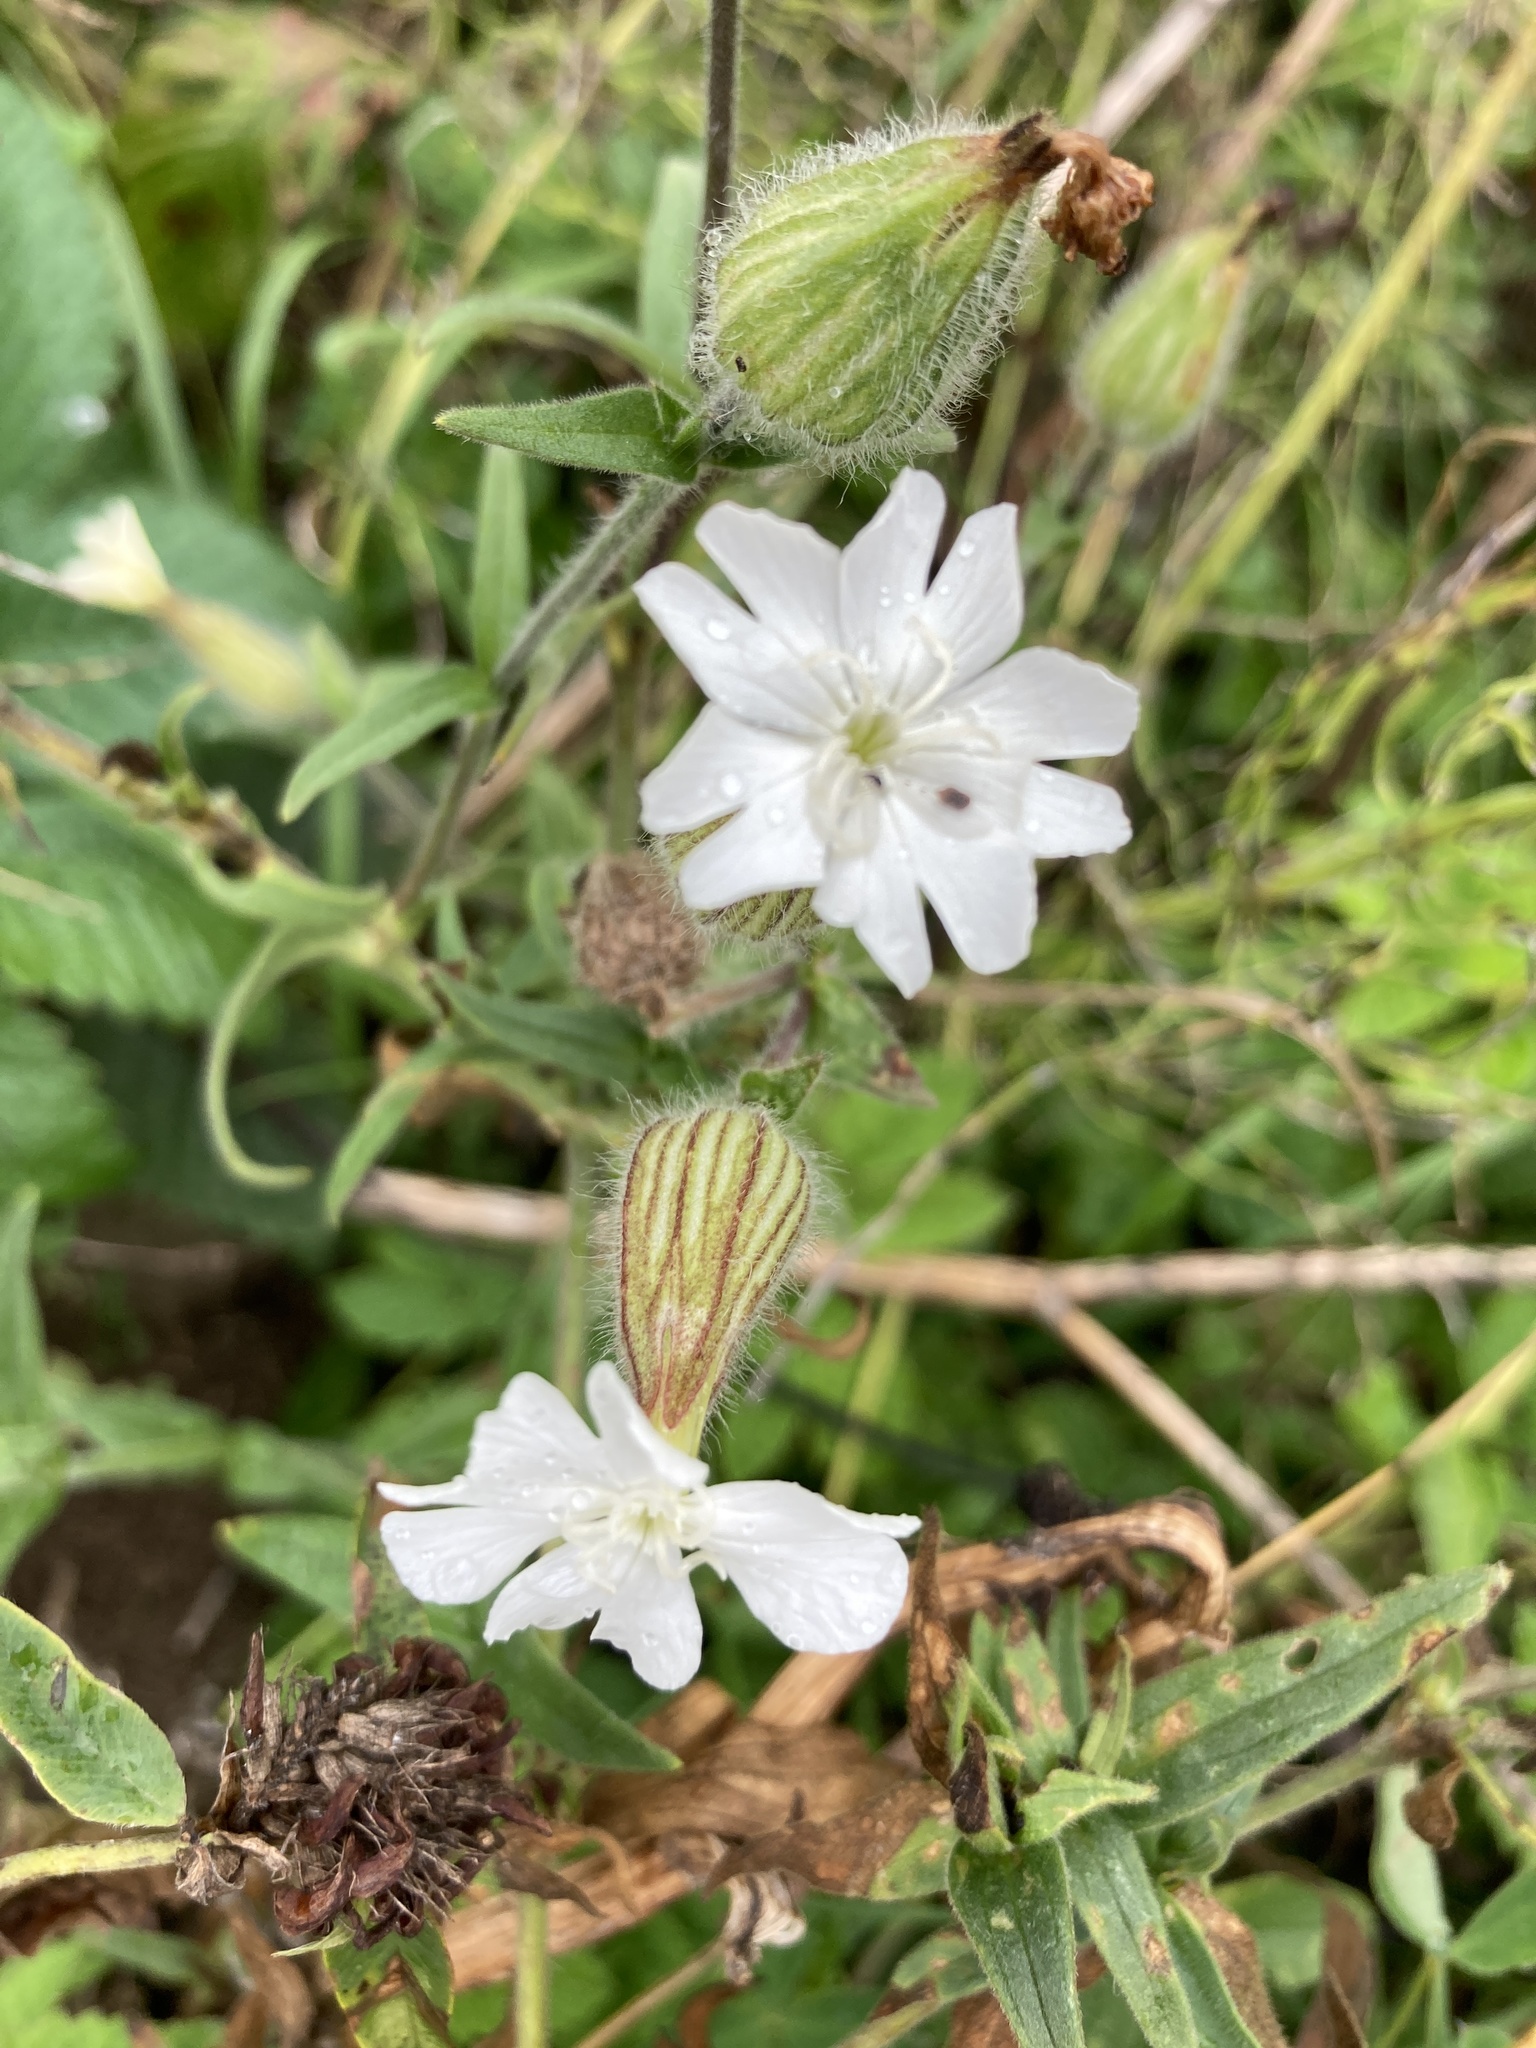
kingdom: Plantae
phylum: Tracheophyta
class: Magnoliopsida
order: Caryophyllales
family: Caryophyllaceae
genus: Silene
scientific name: Silene latifolia
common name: White campion
